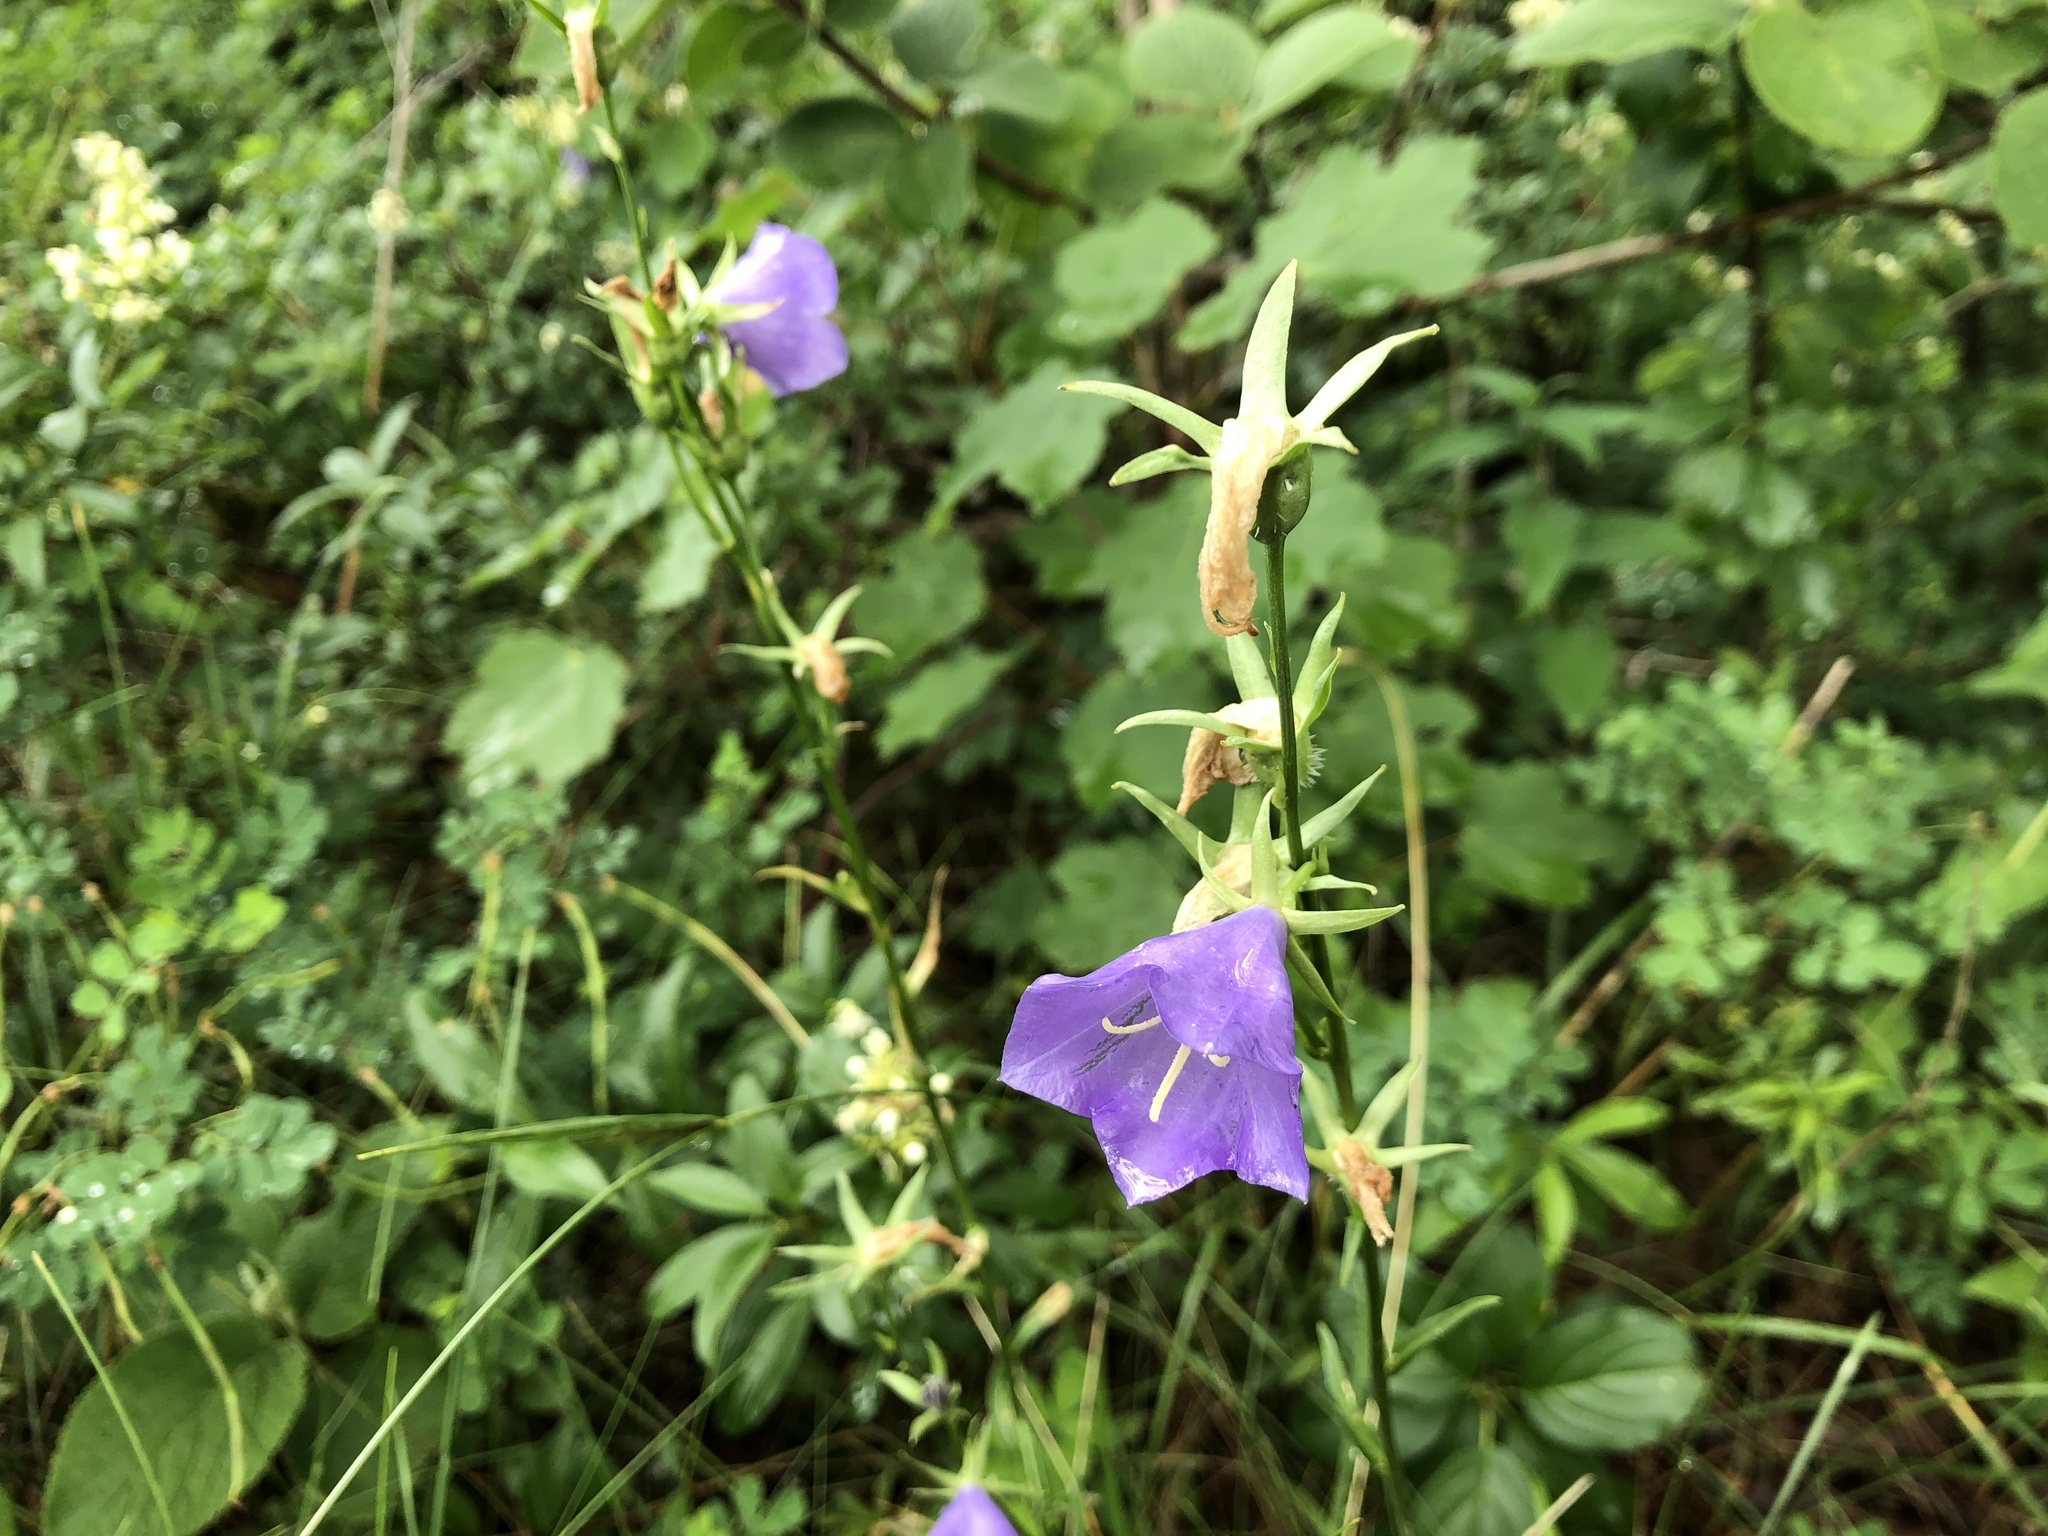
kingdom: Plantae
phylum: Tracheophyta
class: Magnoliopsida
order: Asterales
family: Campanulaceae
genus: Campanula
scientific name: Campanula persicifolia
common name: Peach-leaved bellflower
